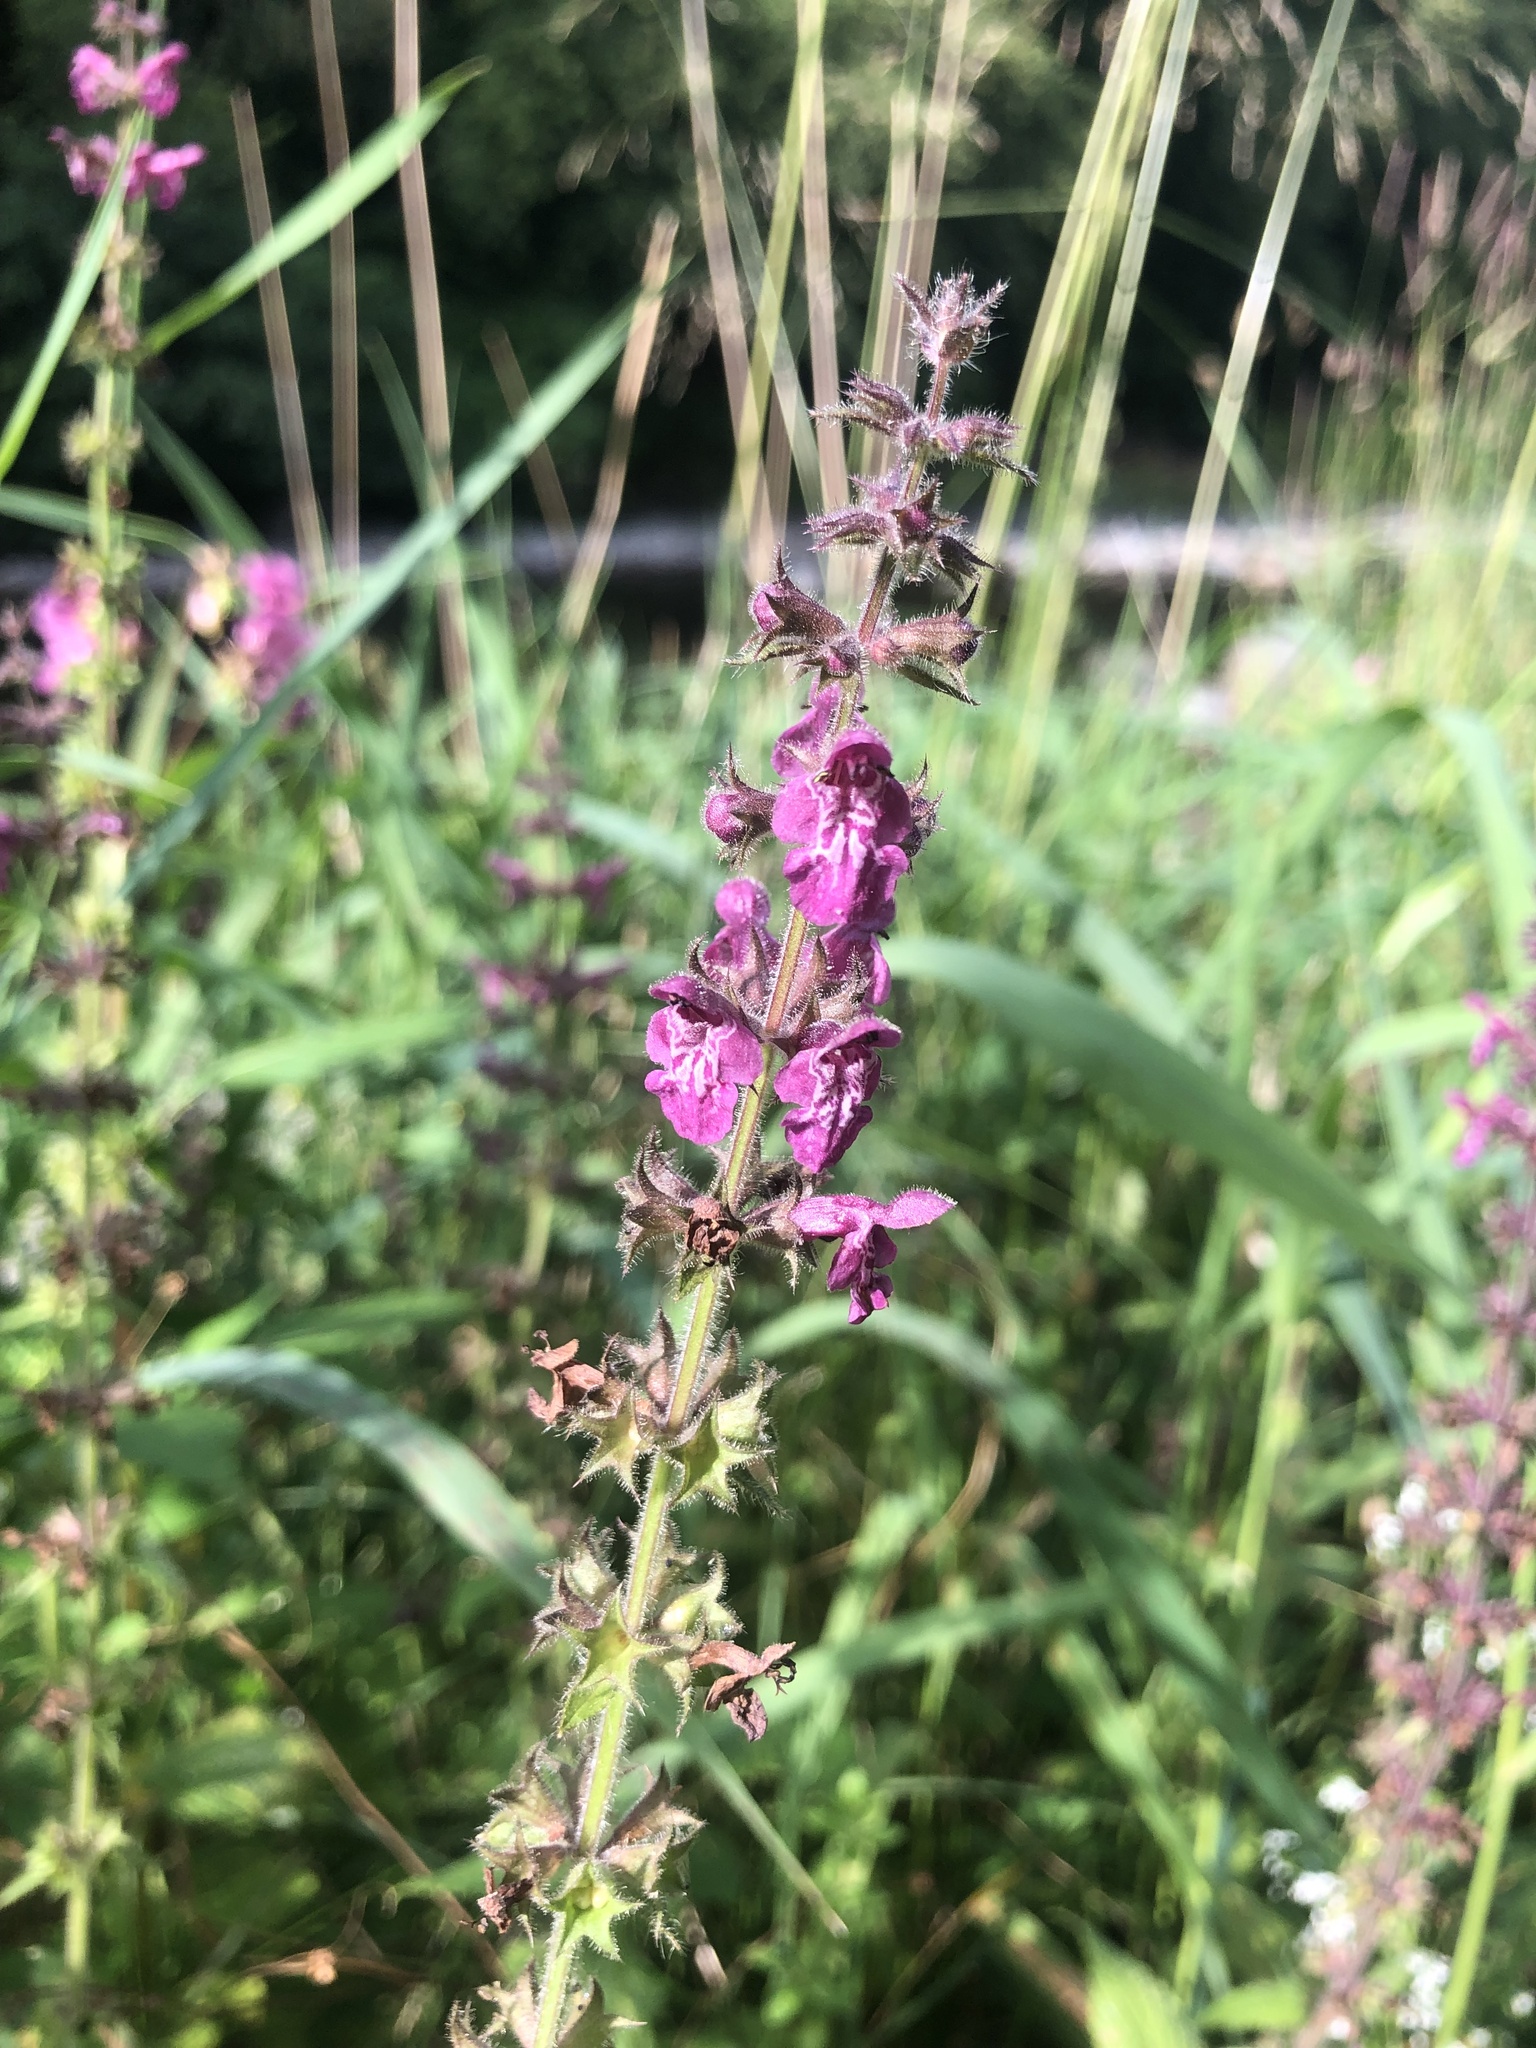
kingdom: Plantae
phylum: Tracheophyta
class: Magnoliopsida
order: Lamiales
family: Lamiaceae
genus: Stachys
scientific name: Stachys sylvatica
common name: Hedge woundwort
